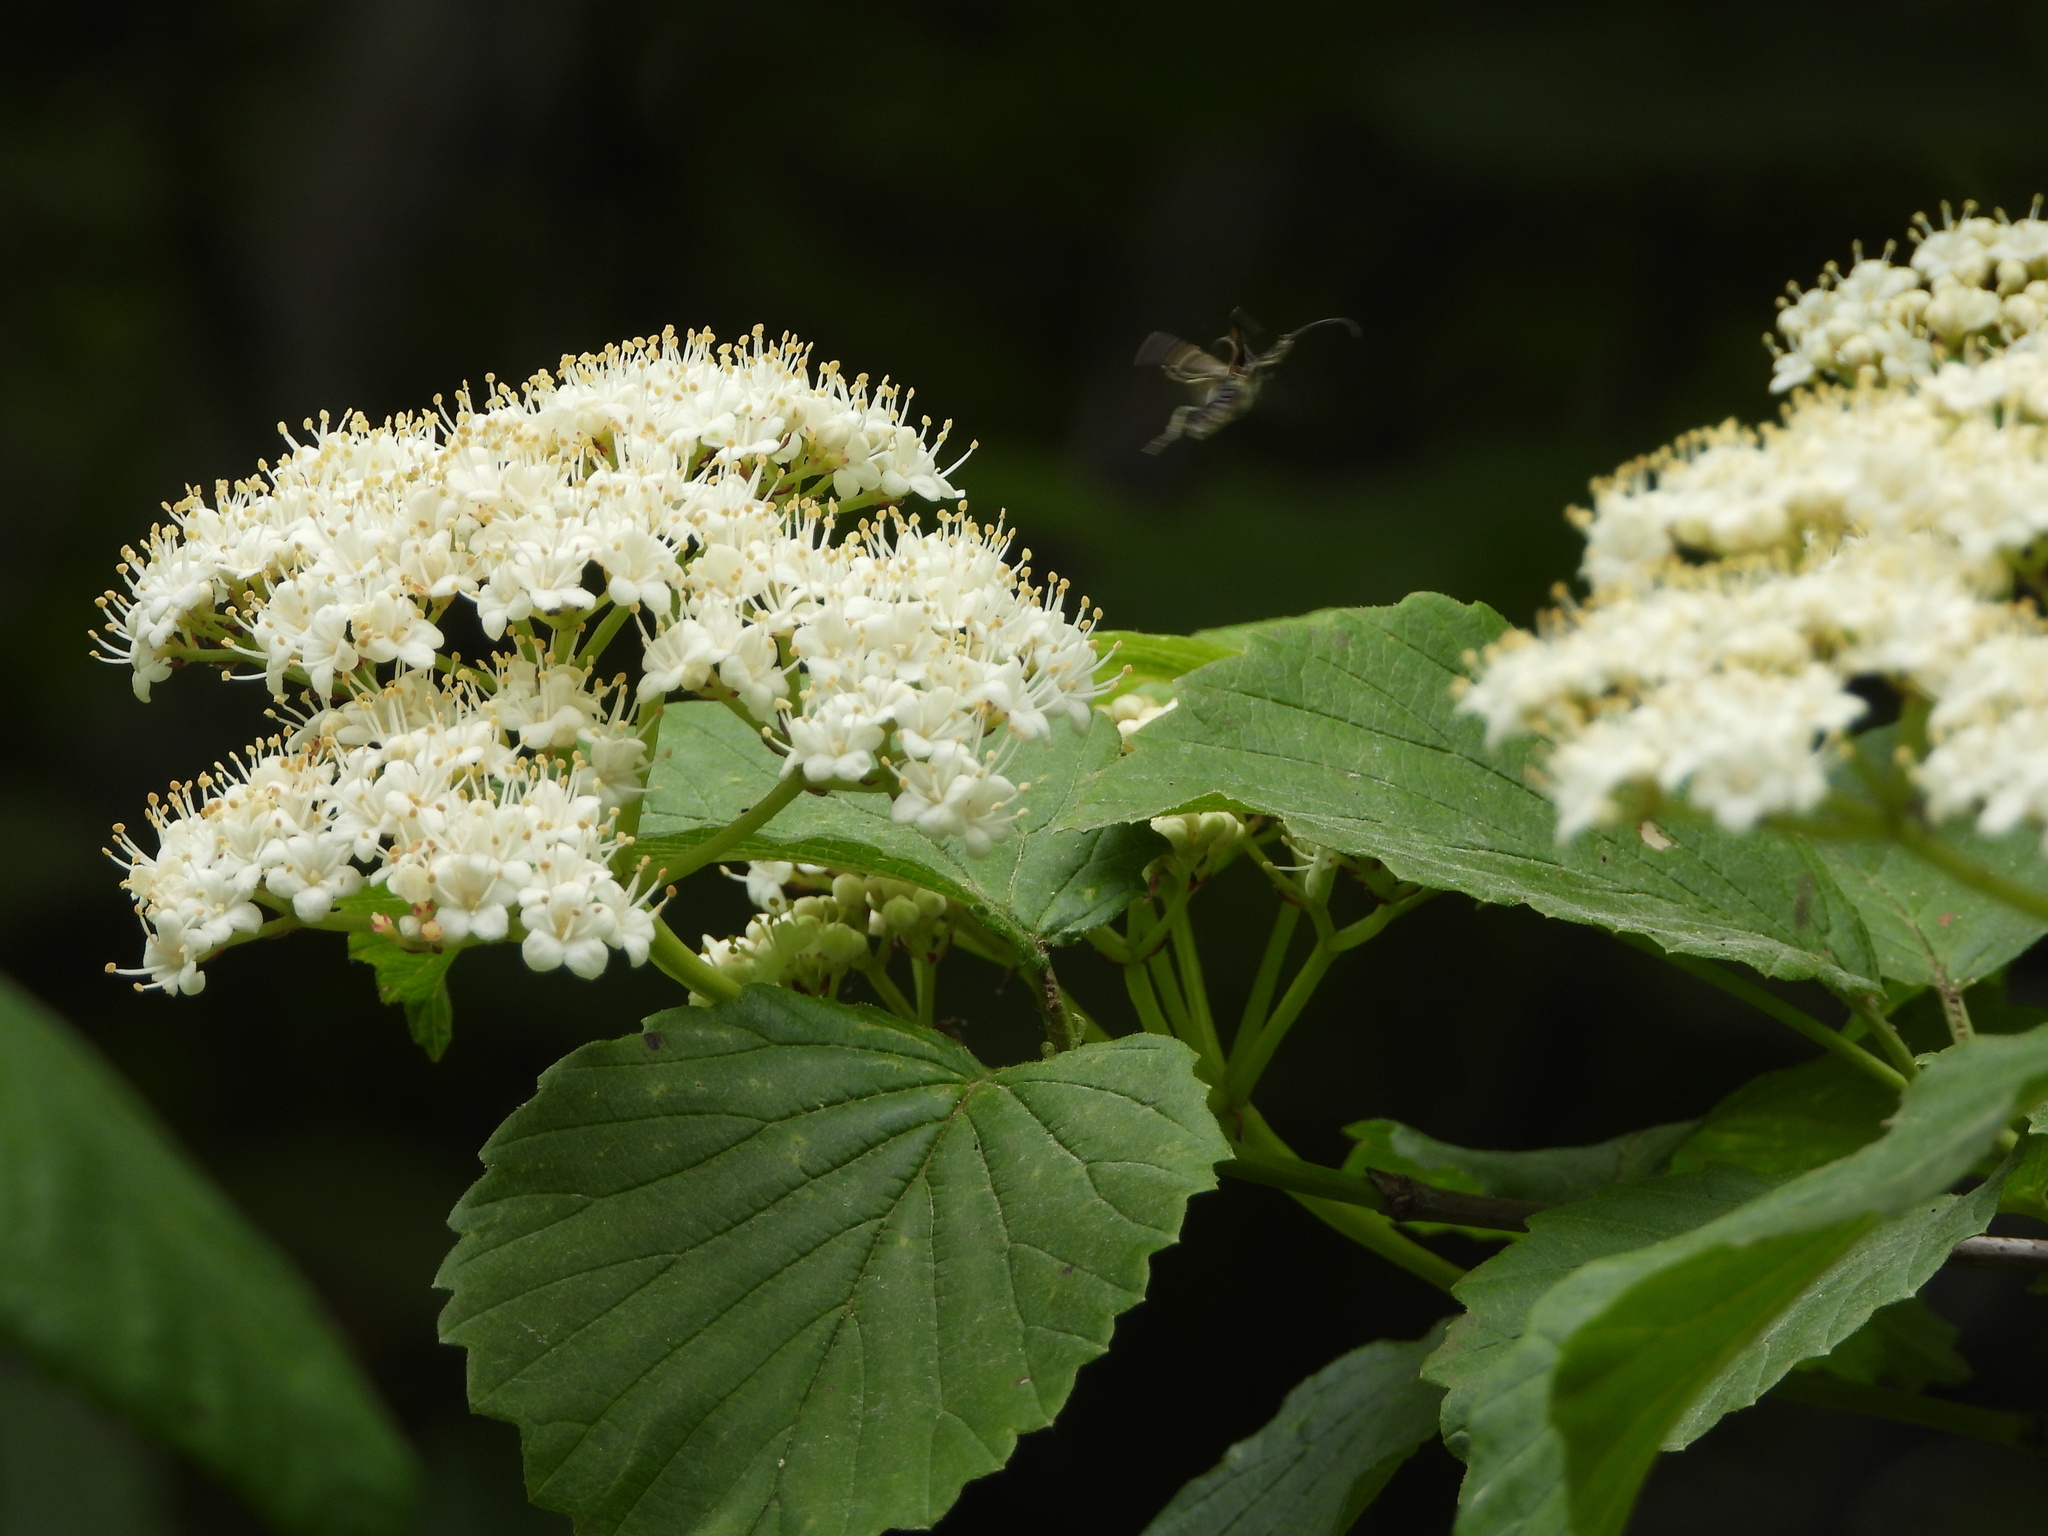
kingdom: Animalia
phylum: Arthropoda
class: Insecta
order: Coleoptera
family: Cerambycidae
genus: Strangalepta
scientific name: Strangalepta abbreviata
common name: Strangalepta flower longhorn beetle
